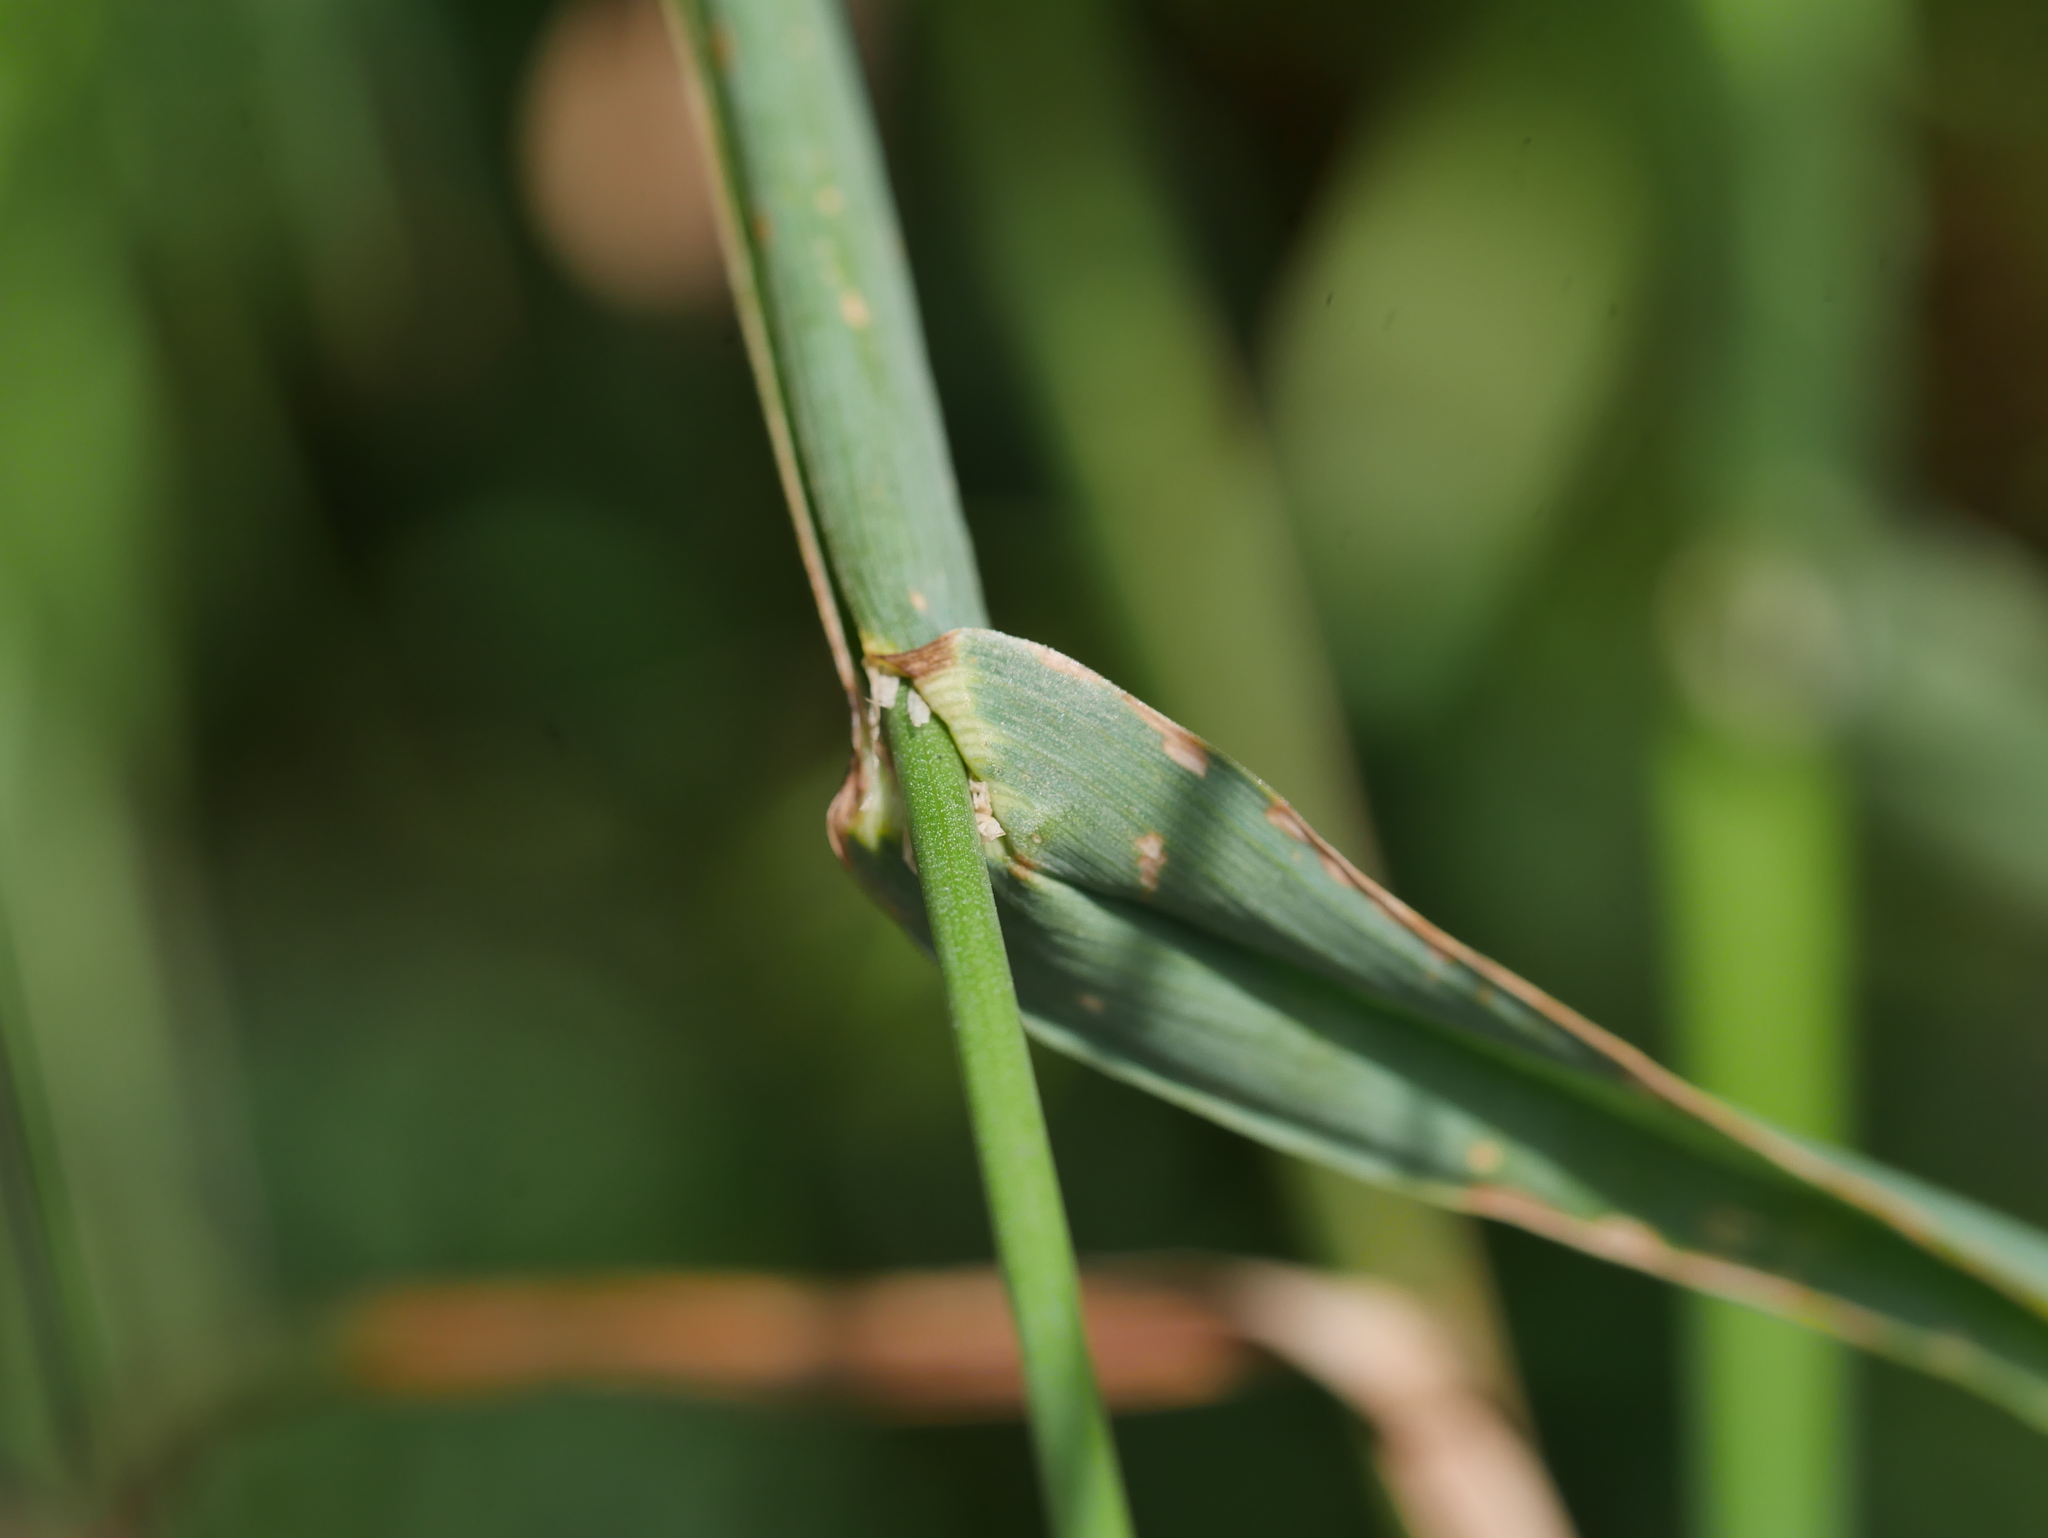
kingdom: Plantae
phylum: Tracheophyta
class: Liliopsida
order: Poales
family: Poaceae
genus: Dactylis
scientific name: Dactylis glomerata
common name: Orchardgrass
